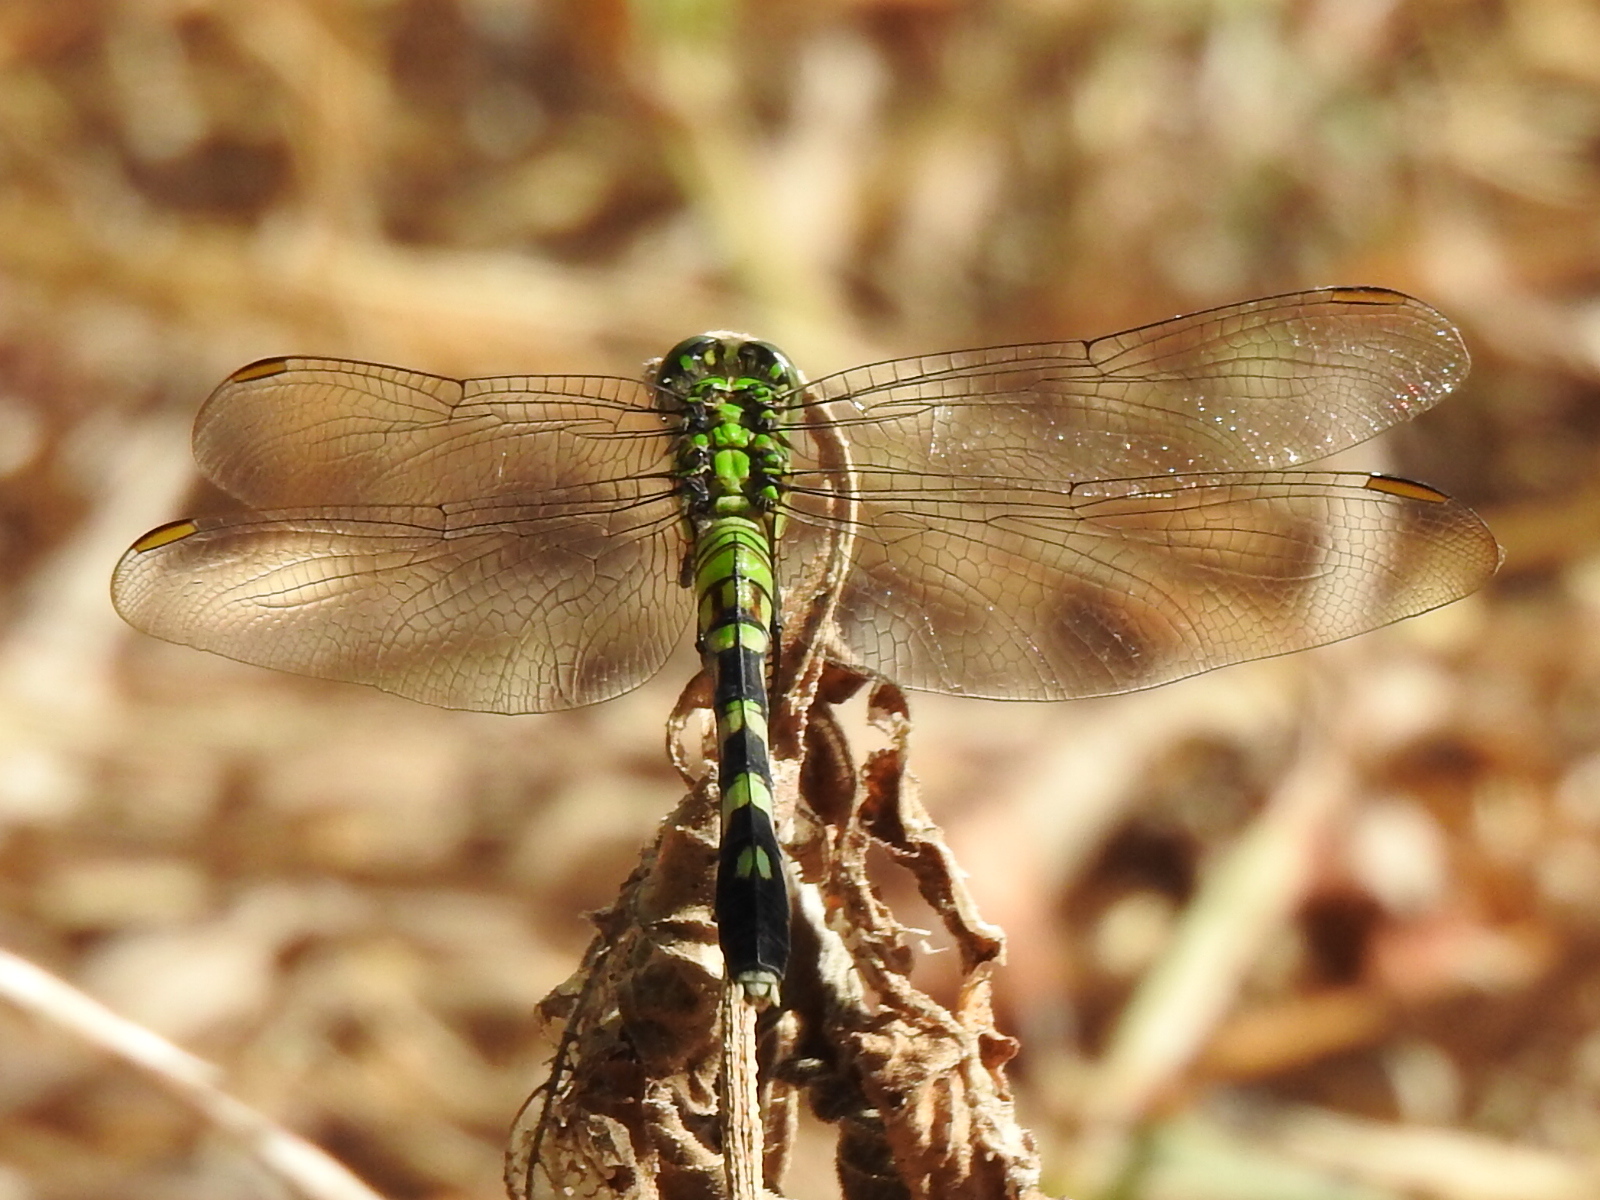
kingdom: Animalia
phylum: Arthropoda
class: Insecta
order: Odonata
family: Libellulidae
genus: Erythemis
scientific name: Erythemis simplicicollis
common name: Eastern pondhawk
